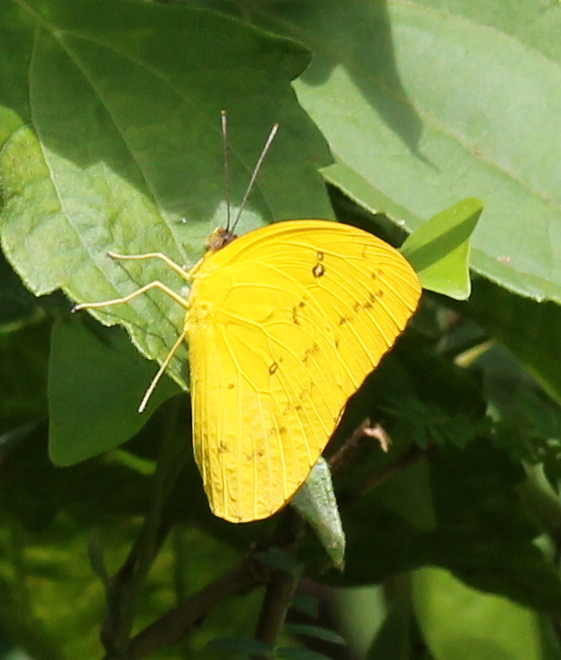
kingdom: Animalia
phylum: Arthropoda
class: Insecta
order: Lepidoptera
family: Pieridae
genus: Catopsilia
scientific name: Catopsilia scylla
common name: Orange emigrant
